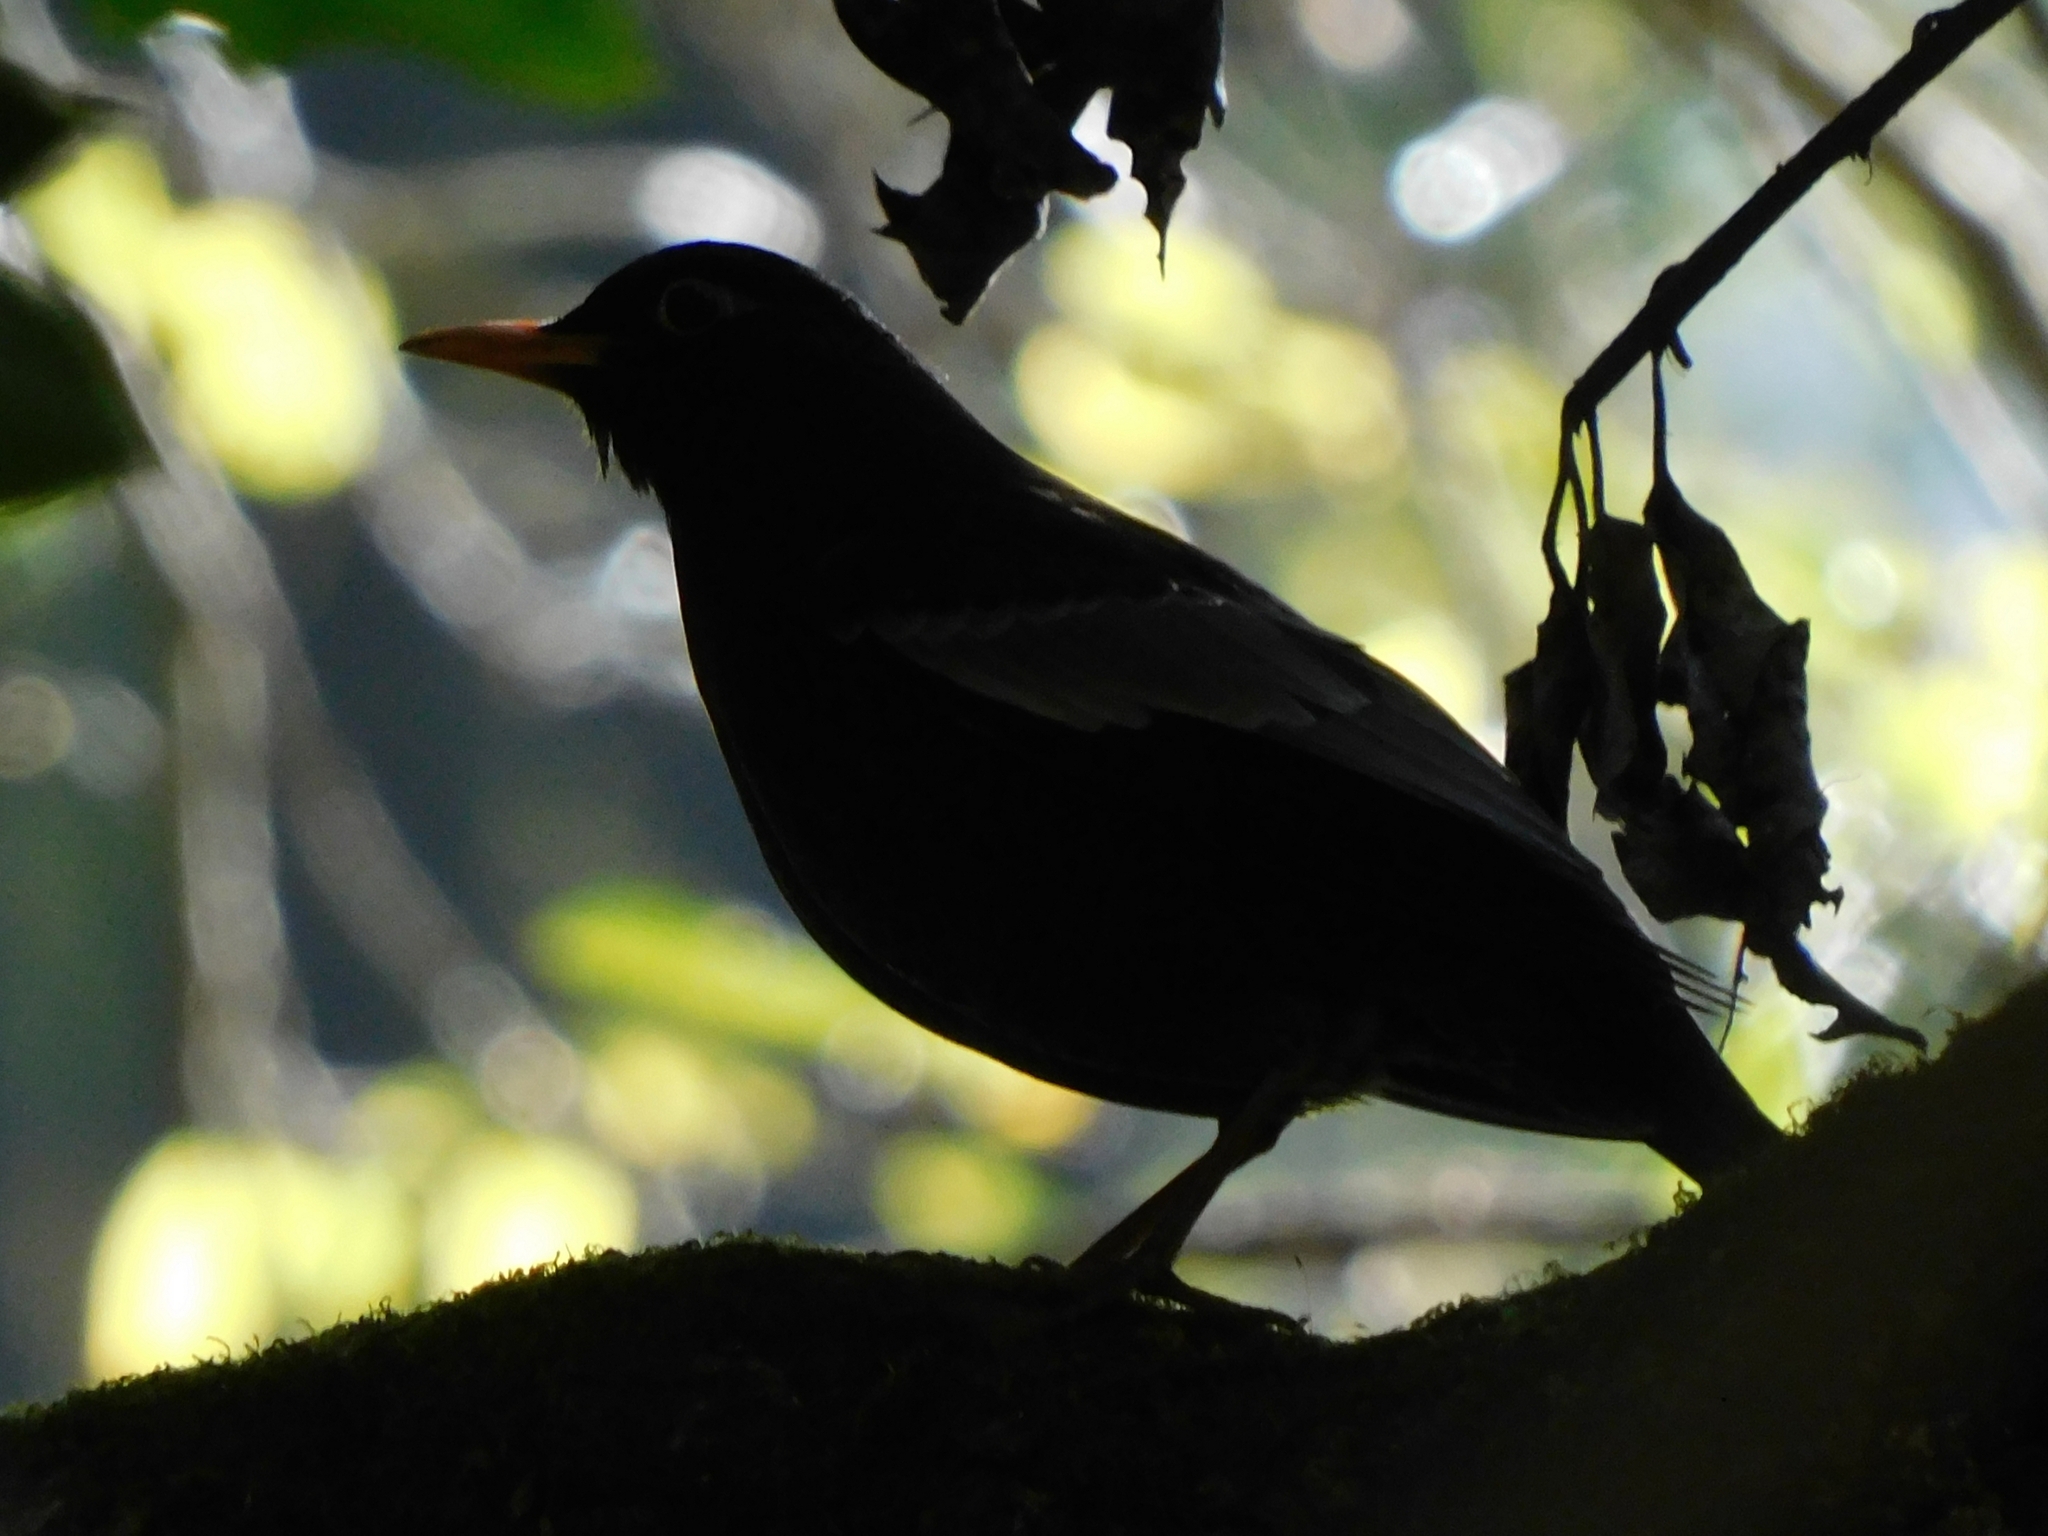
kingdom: Animalia
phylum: Chordata
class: Aves
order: Passeriformes
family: Turdidae
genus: Turdus
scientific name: Turdus boulboul
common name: Grey-winged blackbird
